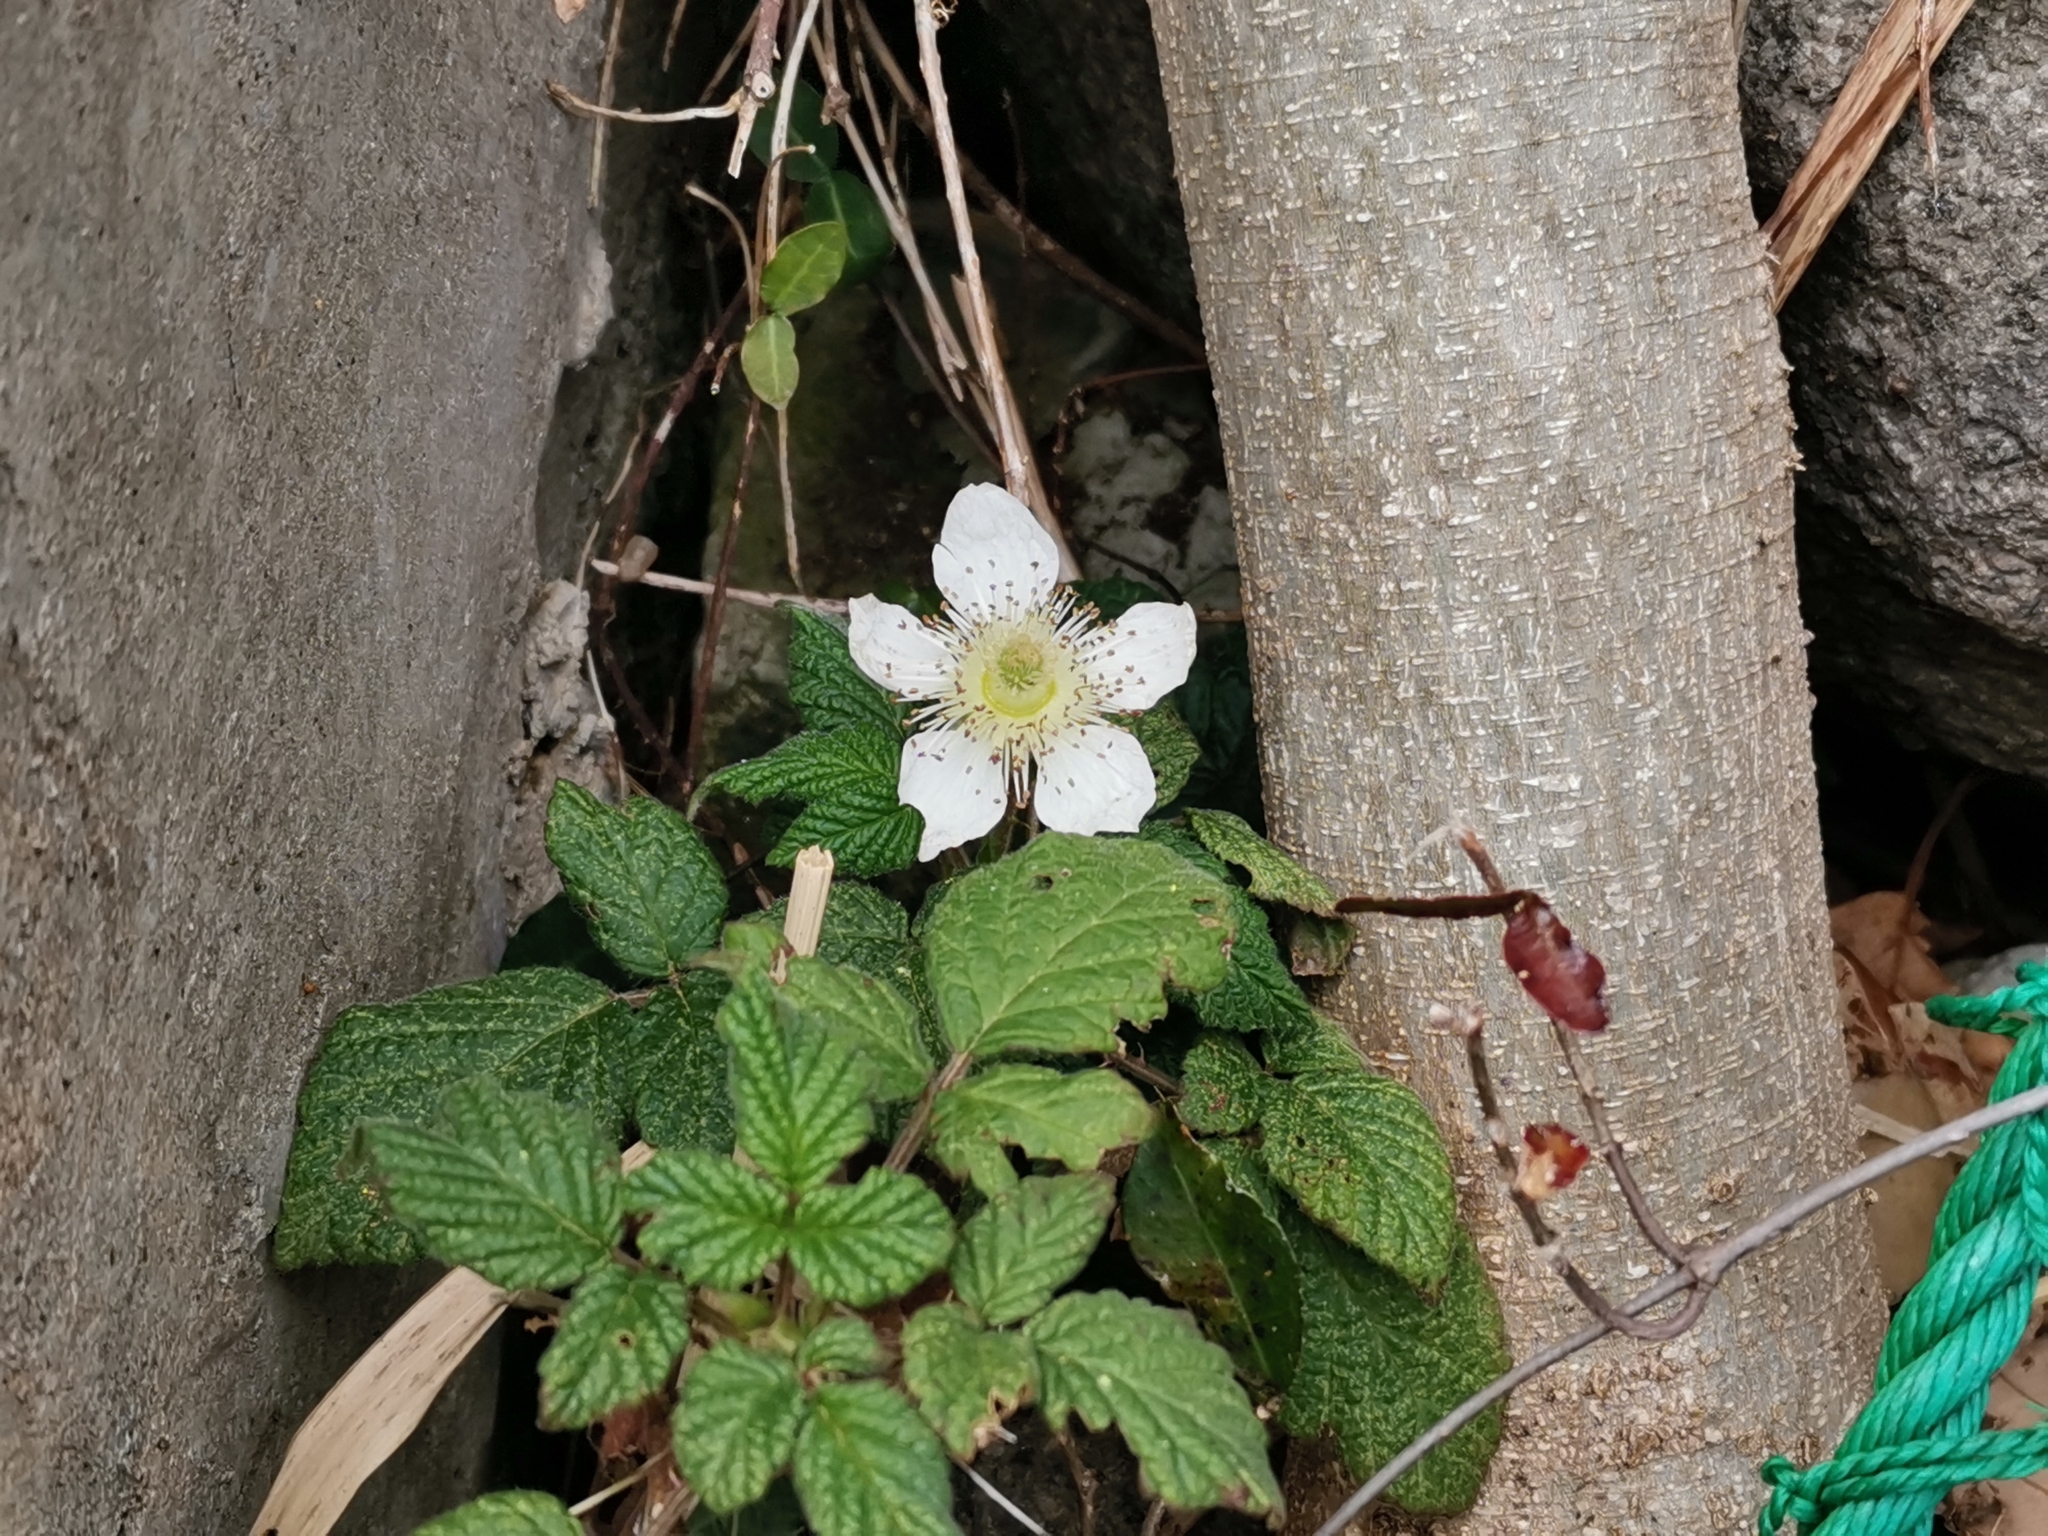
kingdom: Plantae
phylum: Tracheophyta
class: Magnoliopsida
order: Rosales
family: Rosaceae
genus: Rubus
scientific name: Rubus hirsutus
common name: Hirsute raspberry
